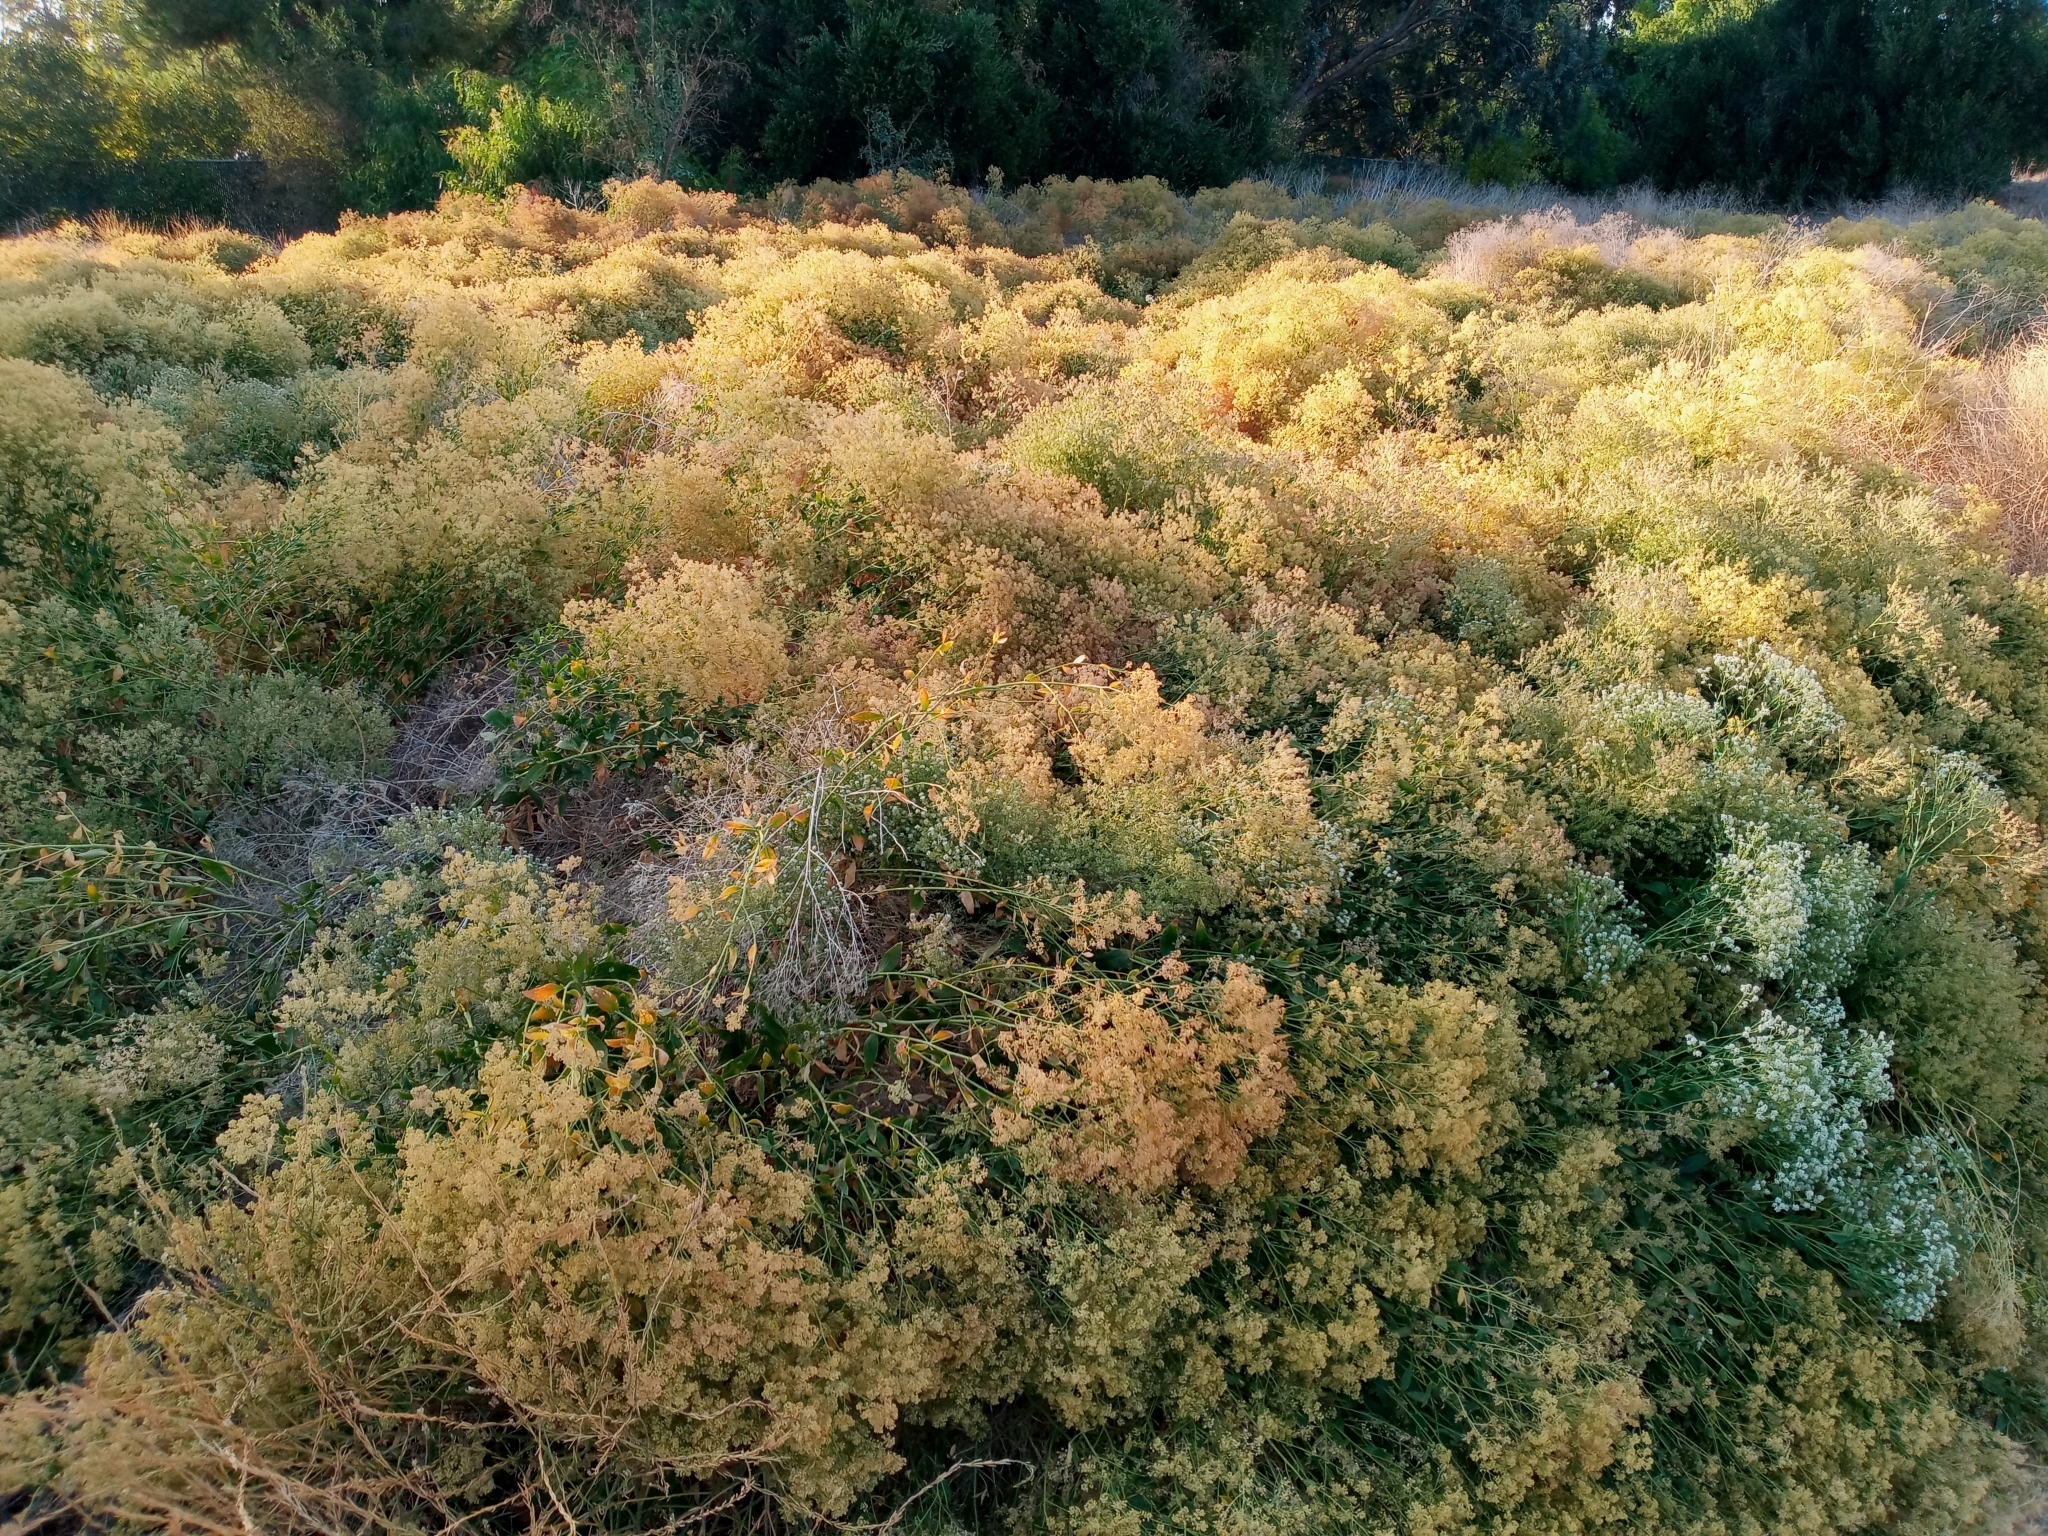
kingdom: Plantae
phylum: Tracheophyta
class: Magnoliopsida
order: Brassicales
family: Brassicaceae
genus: Lepidium
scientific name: Lepidium latifolium
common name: Dittander
